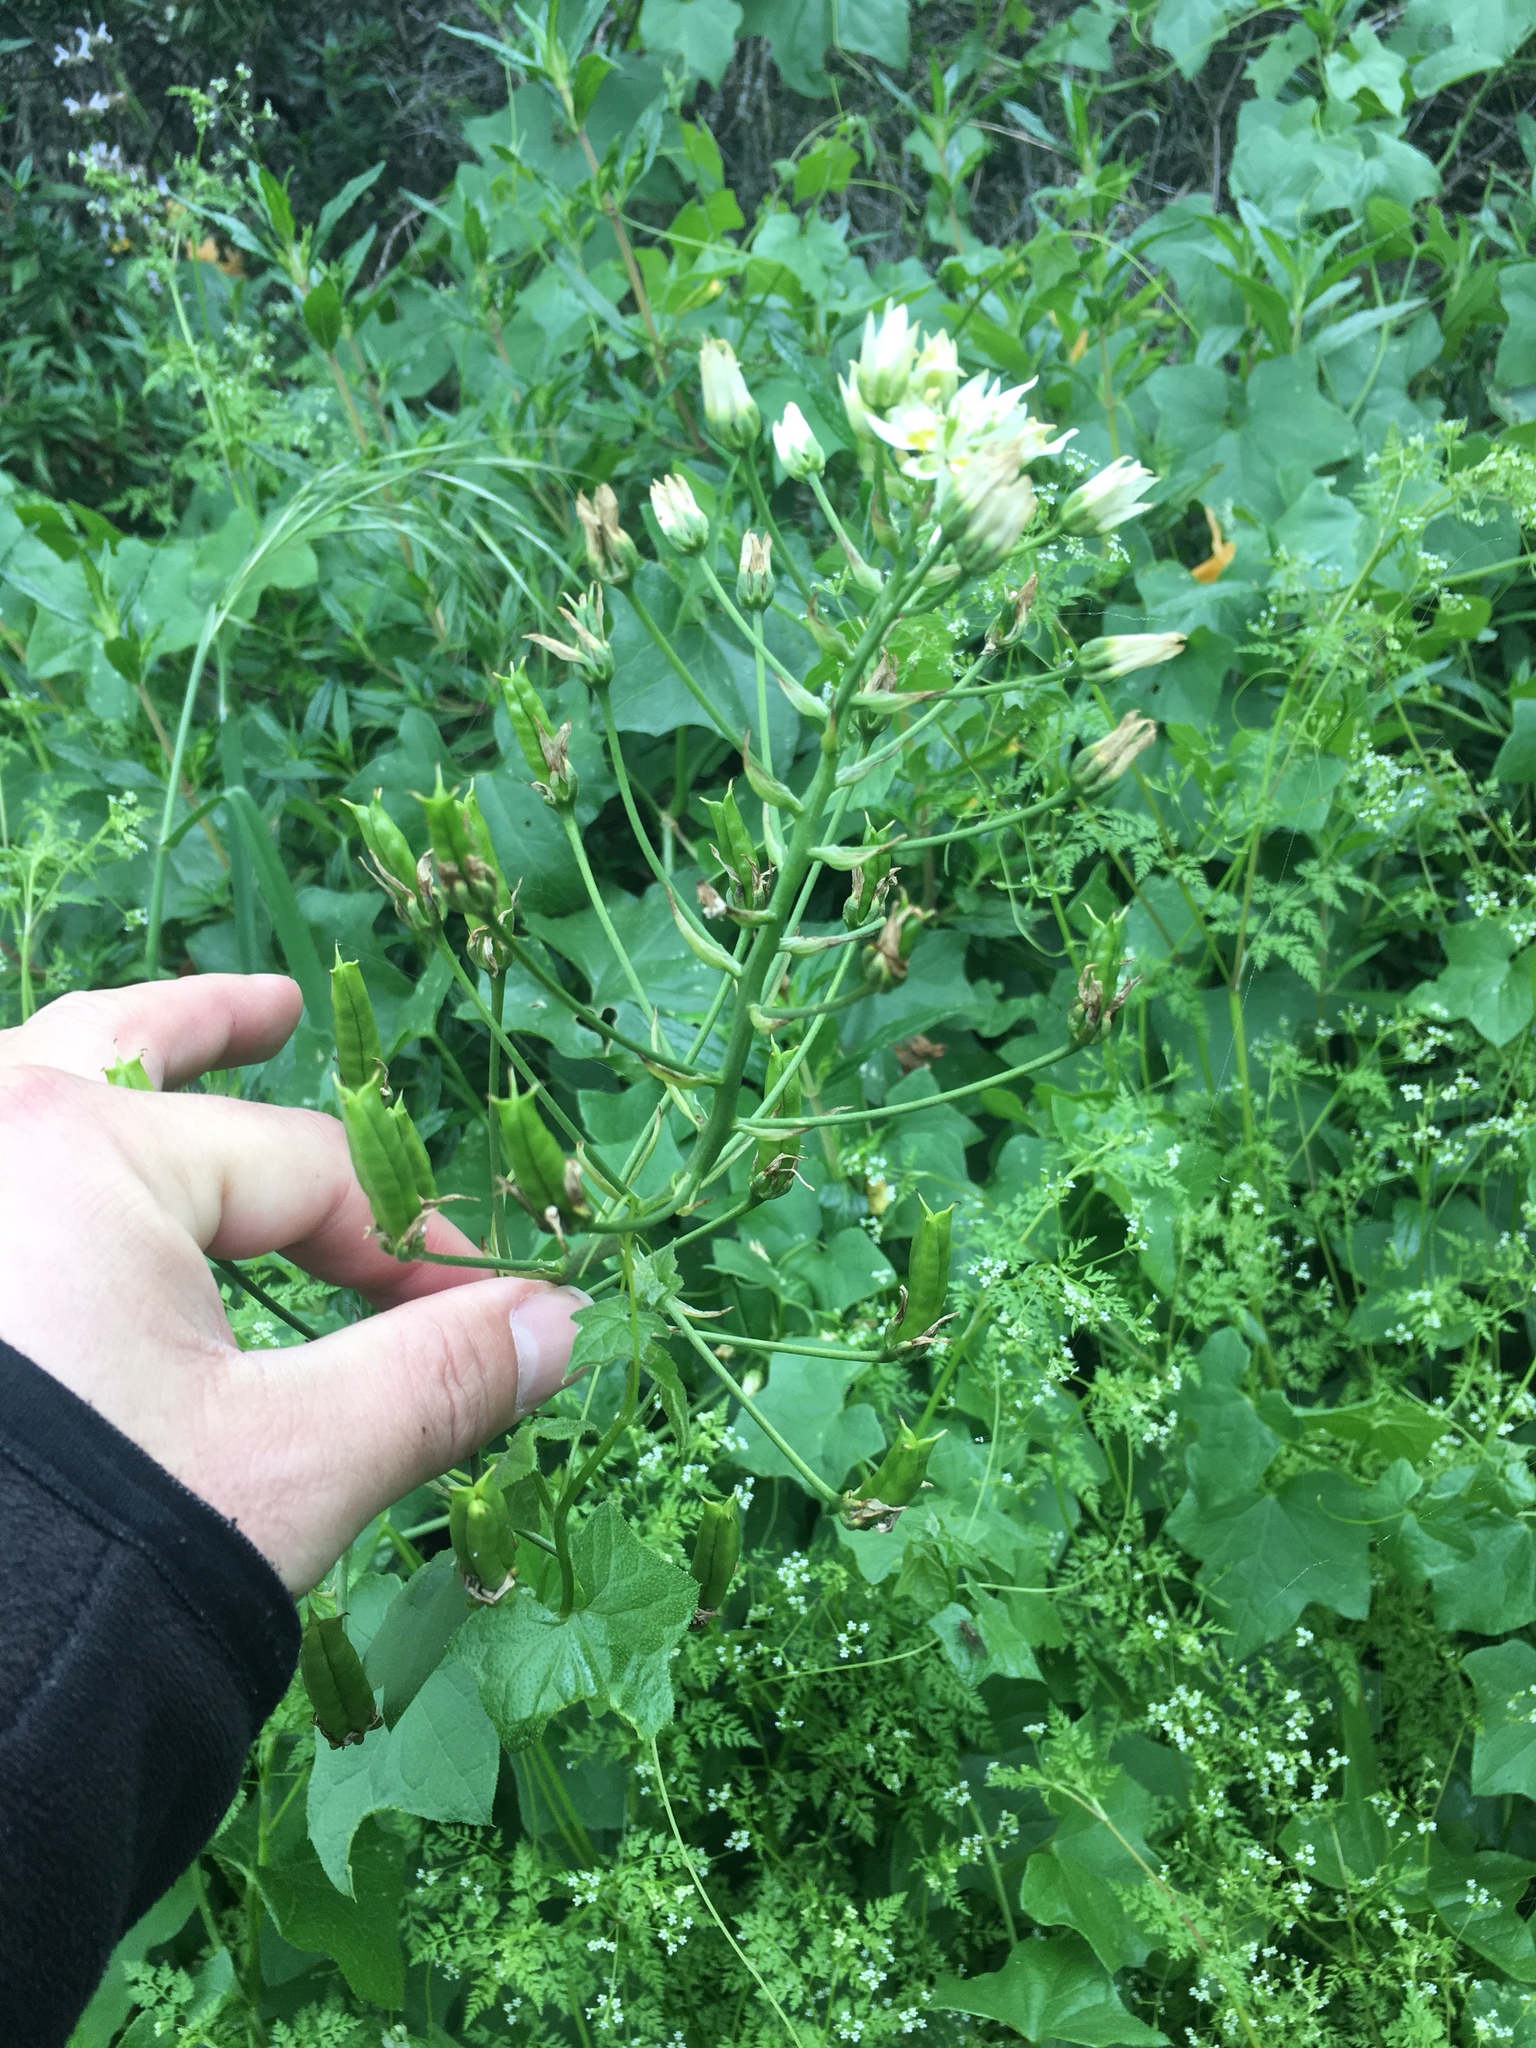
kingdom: Plantae
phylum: Tracheophyta
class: Liliopsida
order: Liliales
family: Melanthiaceae
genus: Toxicoscordion
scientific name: Toxicoscordion fremontii
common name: Fremont's death camas
